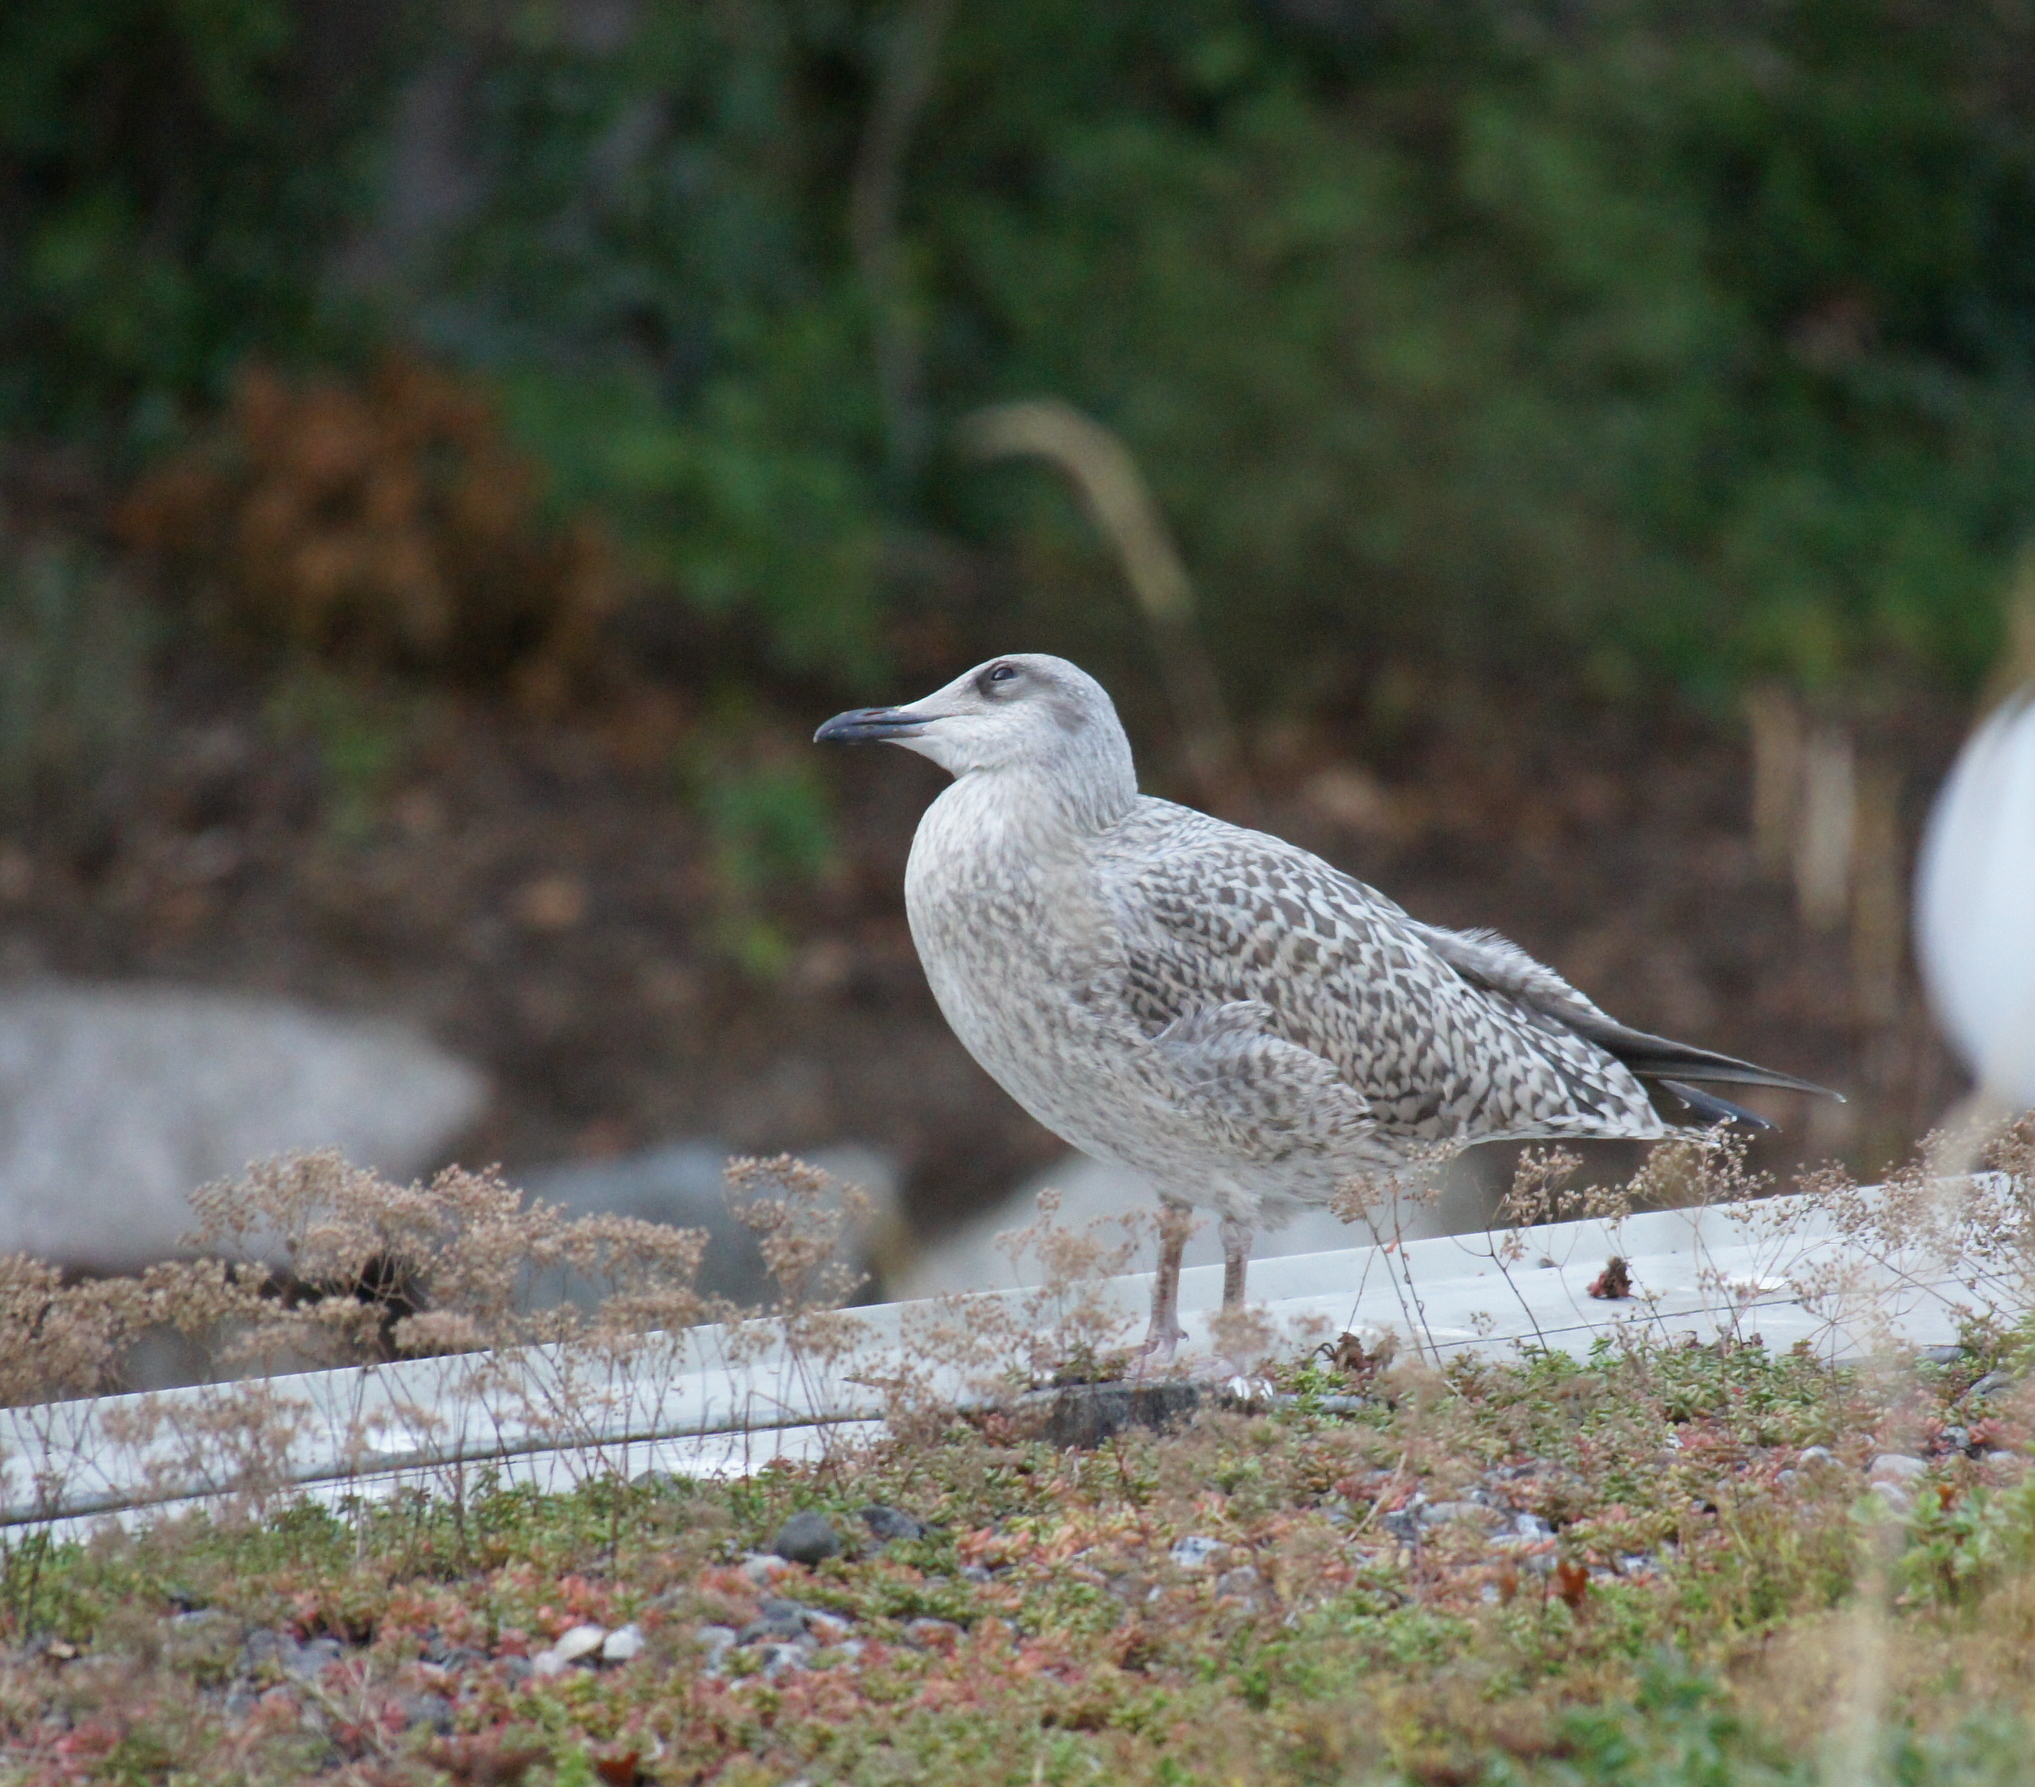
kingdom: Animalia
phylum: Chordata
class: Aves
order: Charadriiformes
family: Laridae
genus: Larus
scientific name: Larus argentatus
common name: Herring gull
